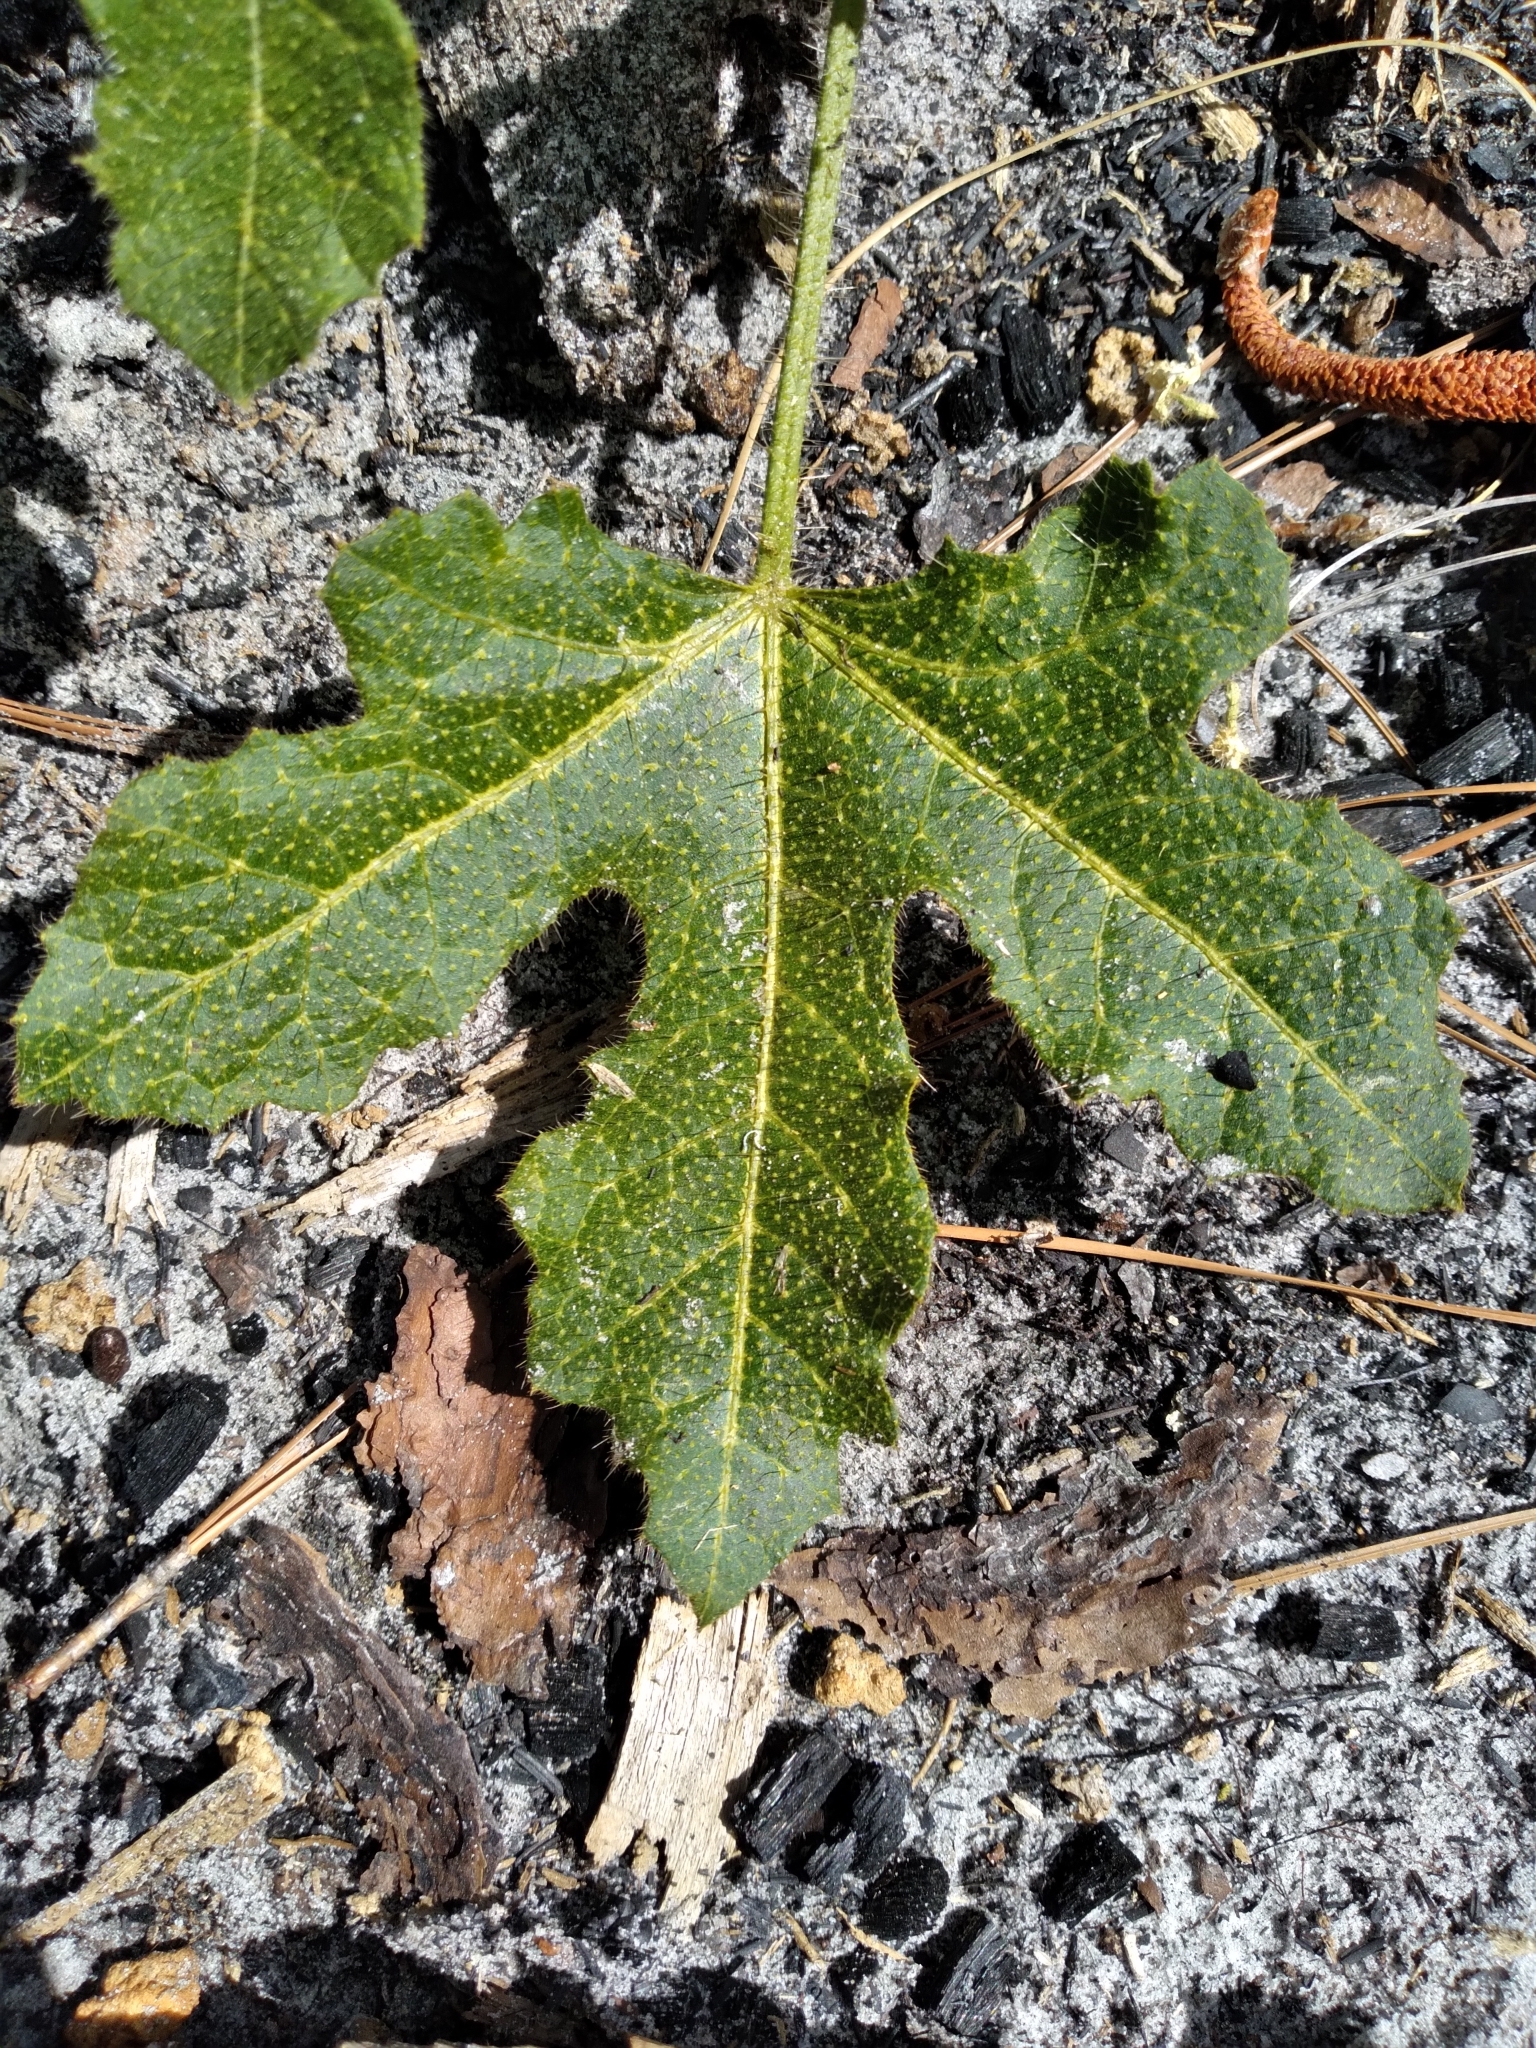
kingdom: Plantae
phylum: Tracheophyta
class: Magnoliopsida
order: Malpighiales
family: Euphorbiaceae
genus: Cnidoscolus
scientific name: Cnidoscolus stimulosus
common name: Bull-nettle
